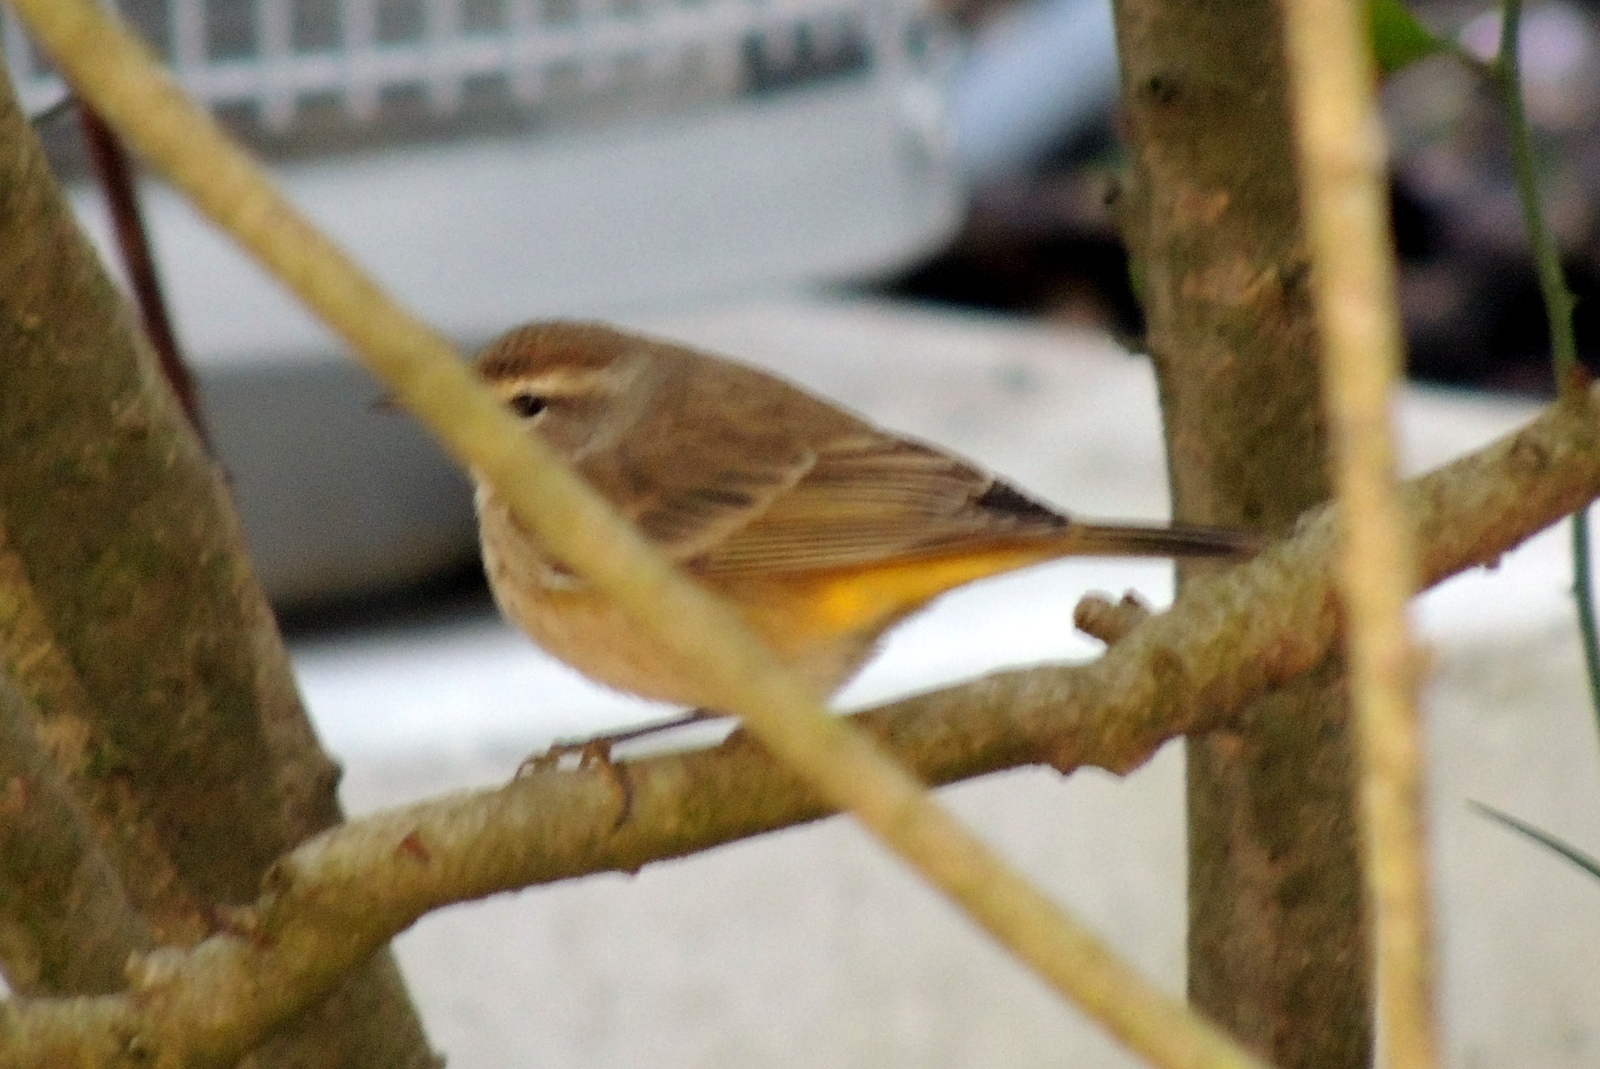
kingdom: Animalia
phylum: Chordata
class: Aves
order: Passeriformes
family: Parulidae
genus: Setophaga
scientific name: Setophaga palmarum
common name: Palm warbler
